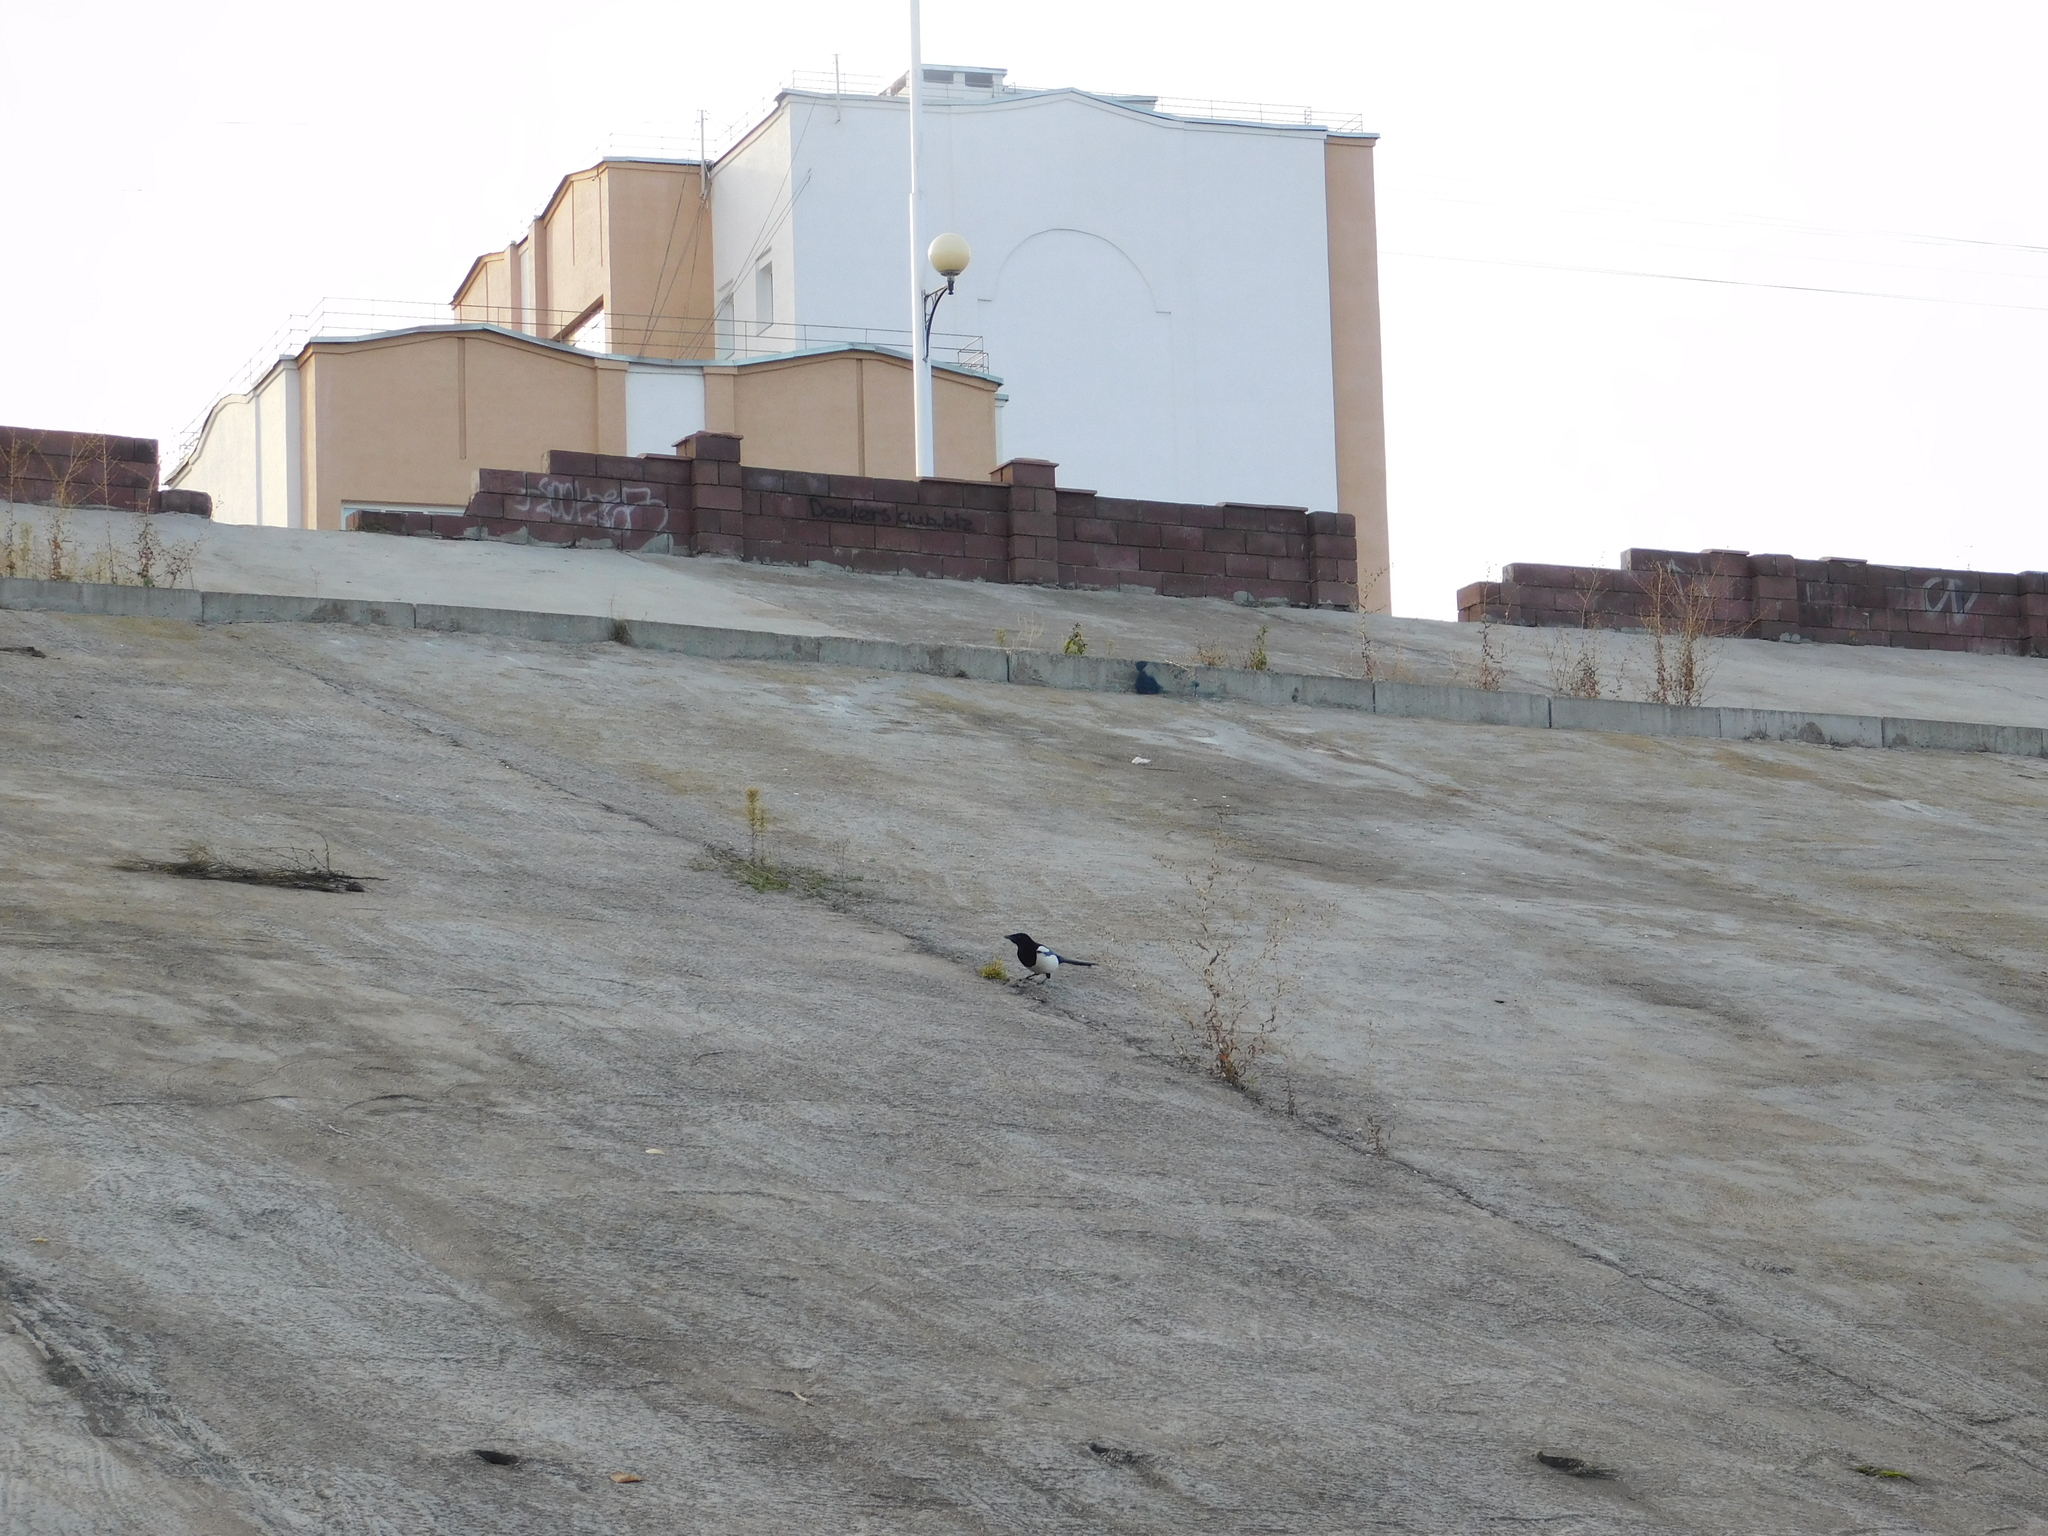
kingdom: Animalia
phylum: Chordata
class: Aves
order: Passeriformes
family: Corvidae
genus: Pica
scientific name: Pica pica
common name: Eurasian magpie
